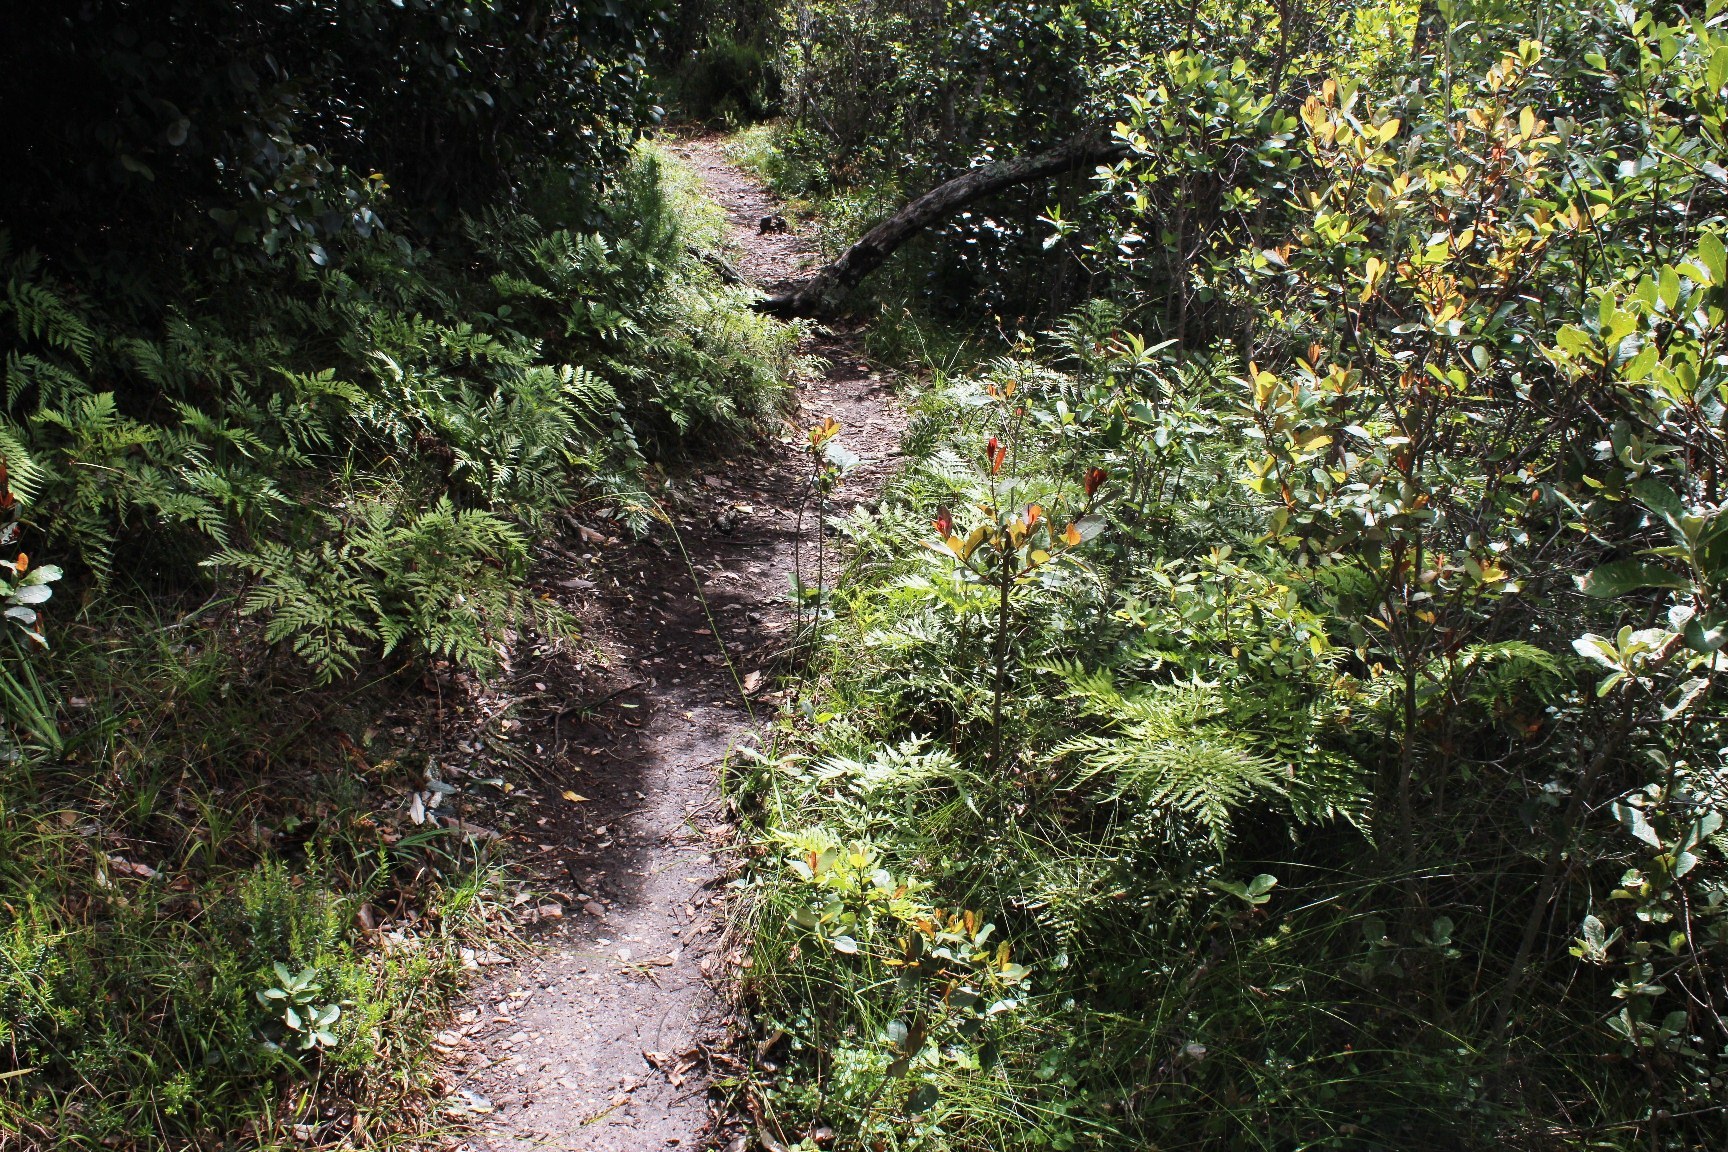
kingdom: Plantae
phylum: Tracheophyta
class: Polypodiopsida
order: Polypodiales
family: Dryopteridaceae
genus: Rumohra
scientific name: Rumohra adiantiformis
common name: Leather fern
